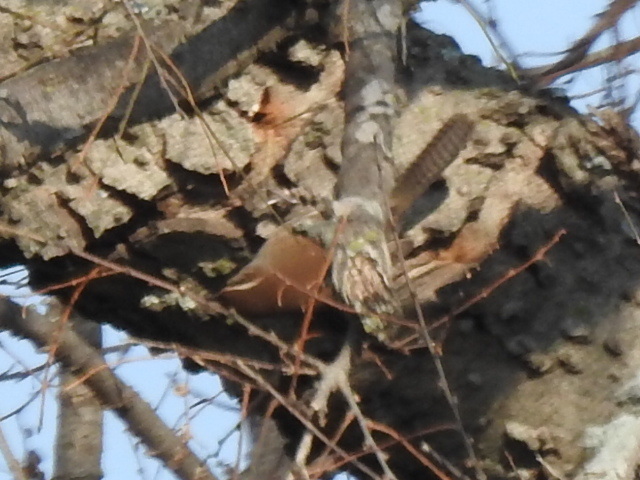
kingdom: Animalia
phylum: Chordata
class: Aves
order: Passeriformes
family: Troglodytidae
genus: Thryothorus
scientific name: Thryothorus ludovicianus
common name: Carolina wren
